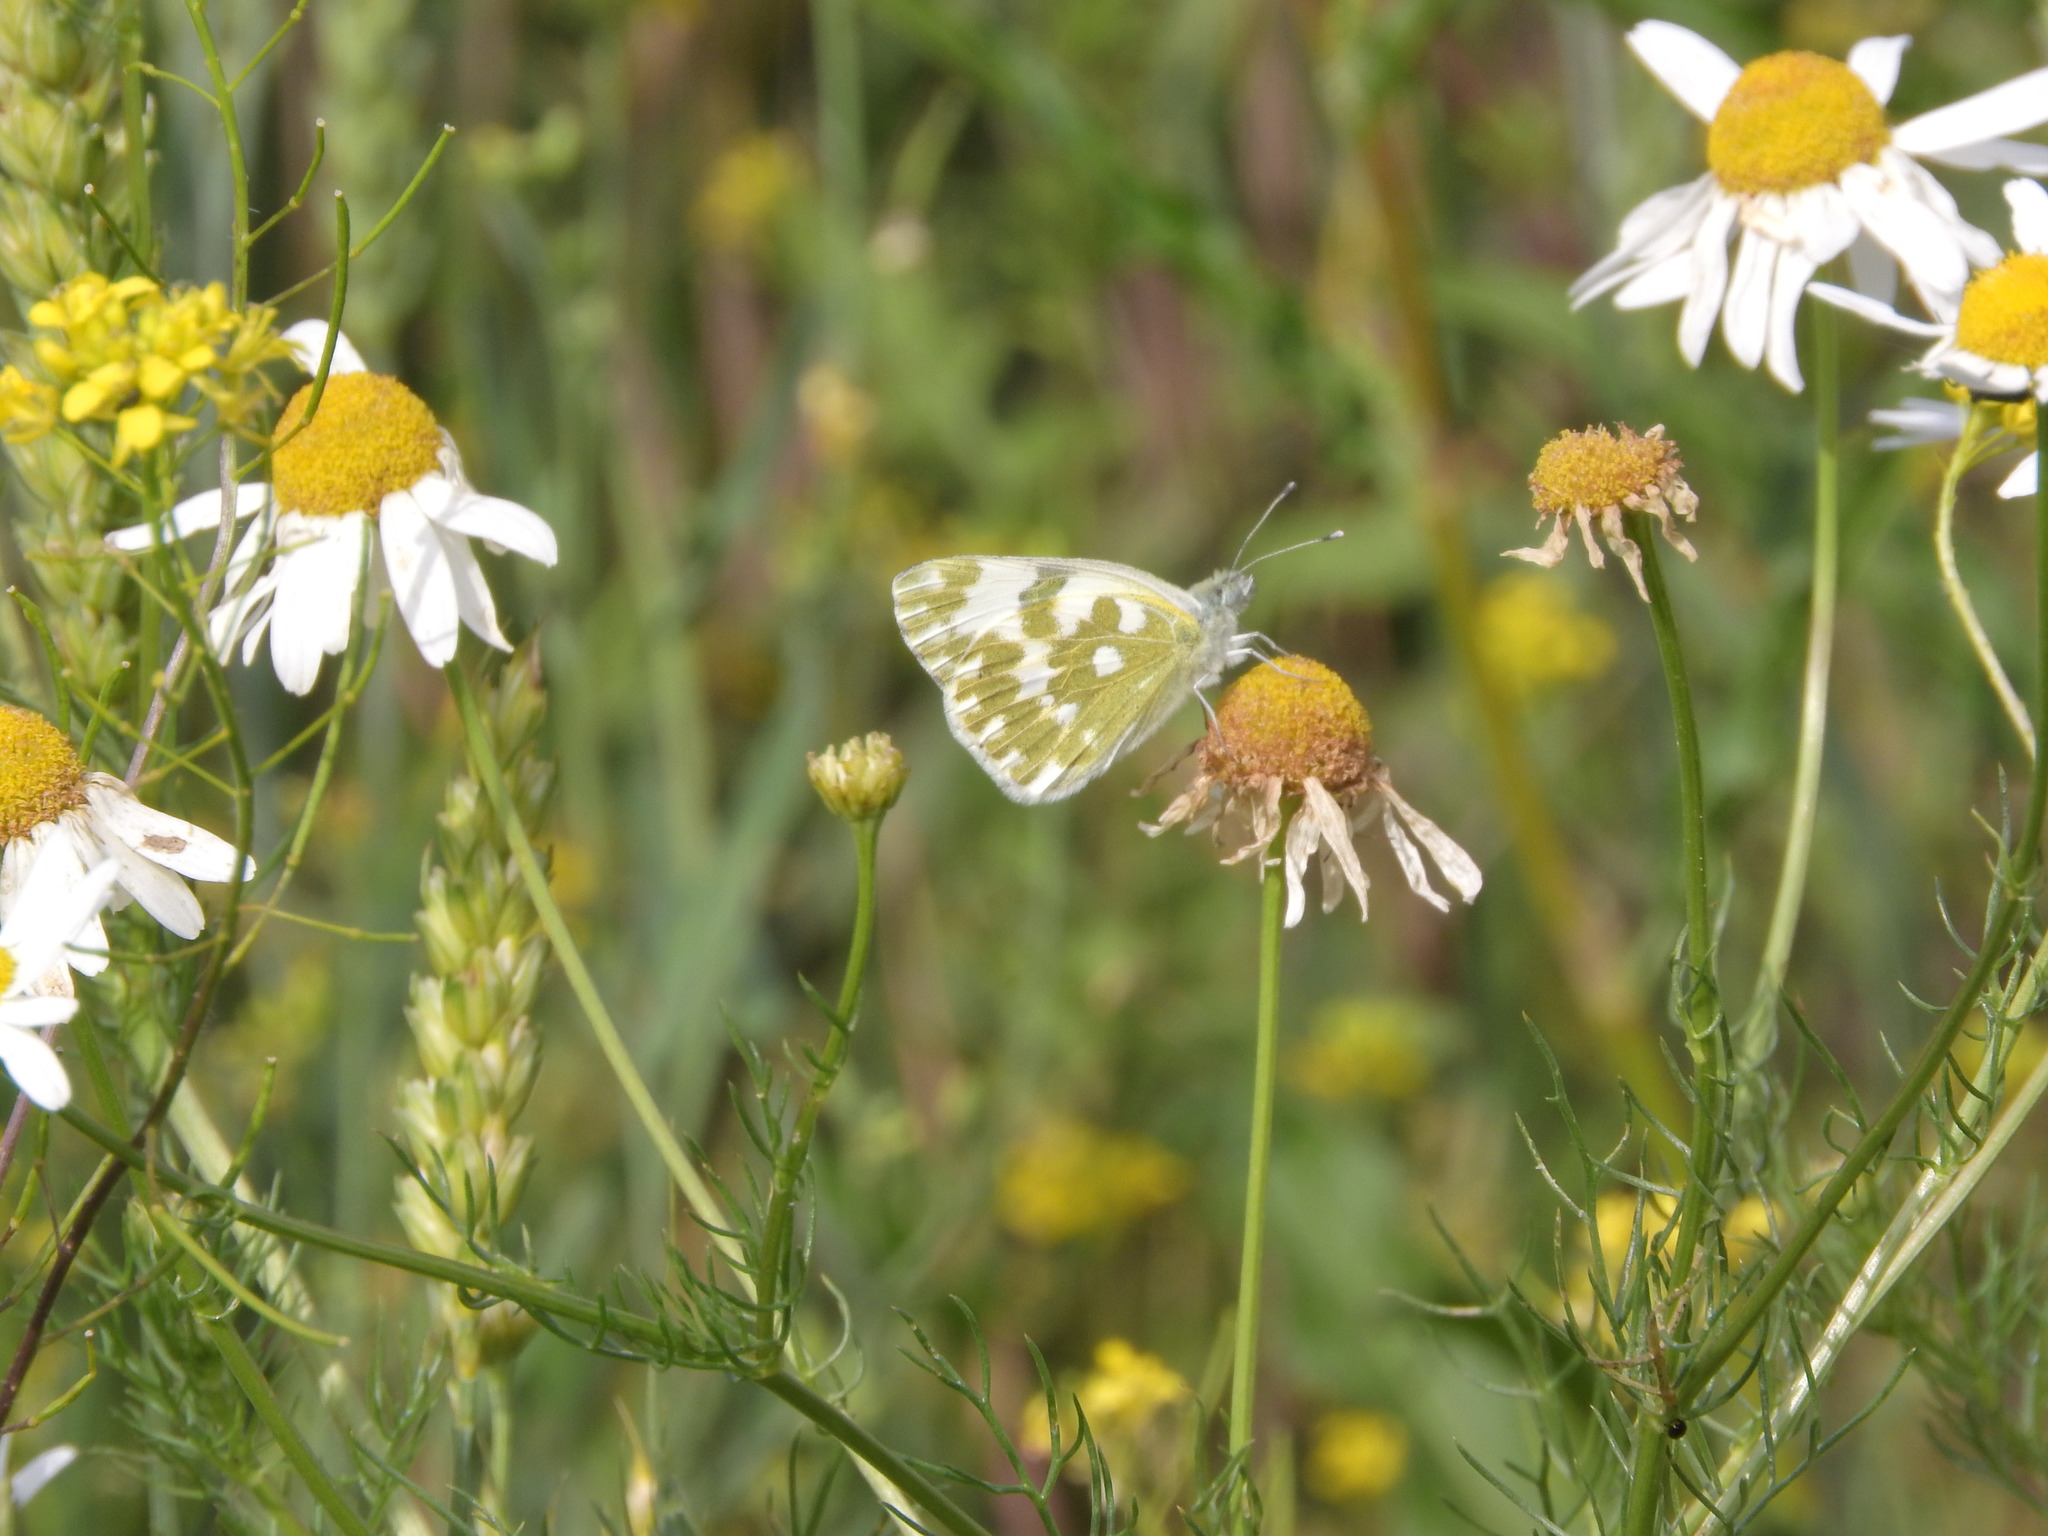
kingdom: Animalia
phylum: Arthropoda
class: Insecta
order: Lepidoptera
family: Pieridae
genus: Pontia
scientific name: Pontia edusa
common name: Eastern bath white
